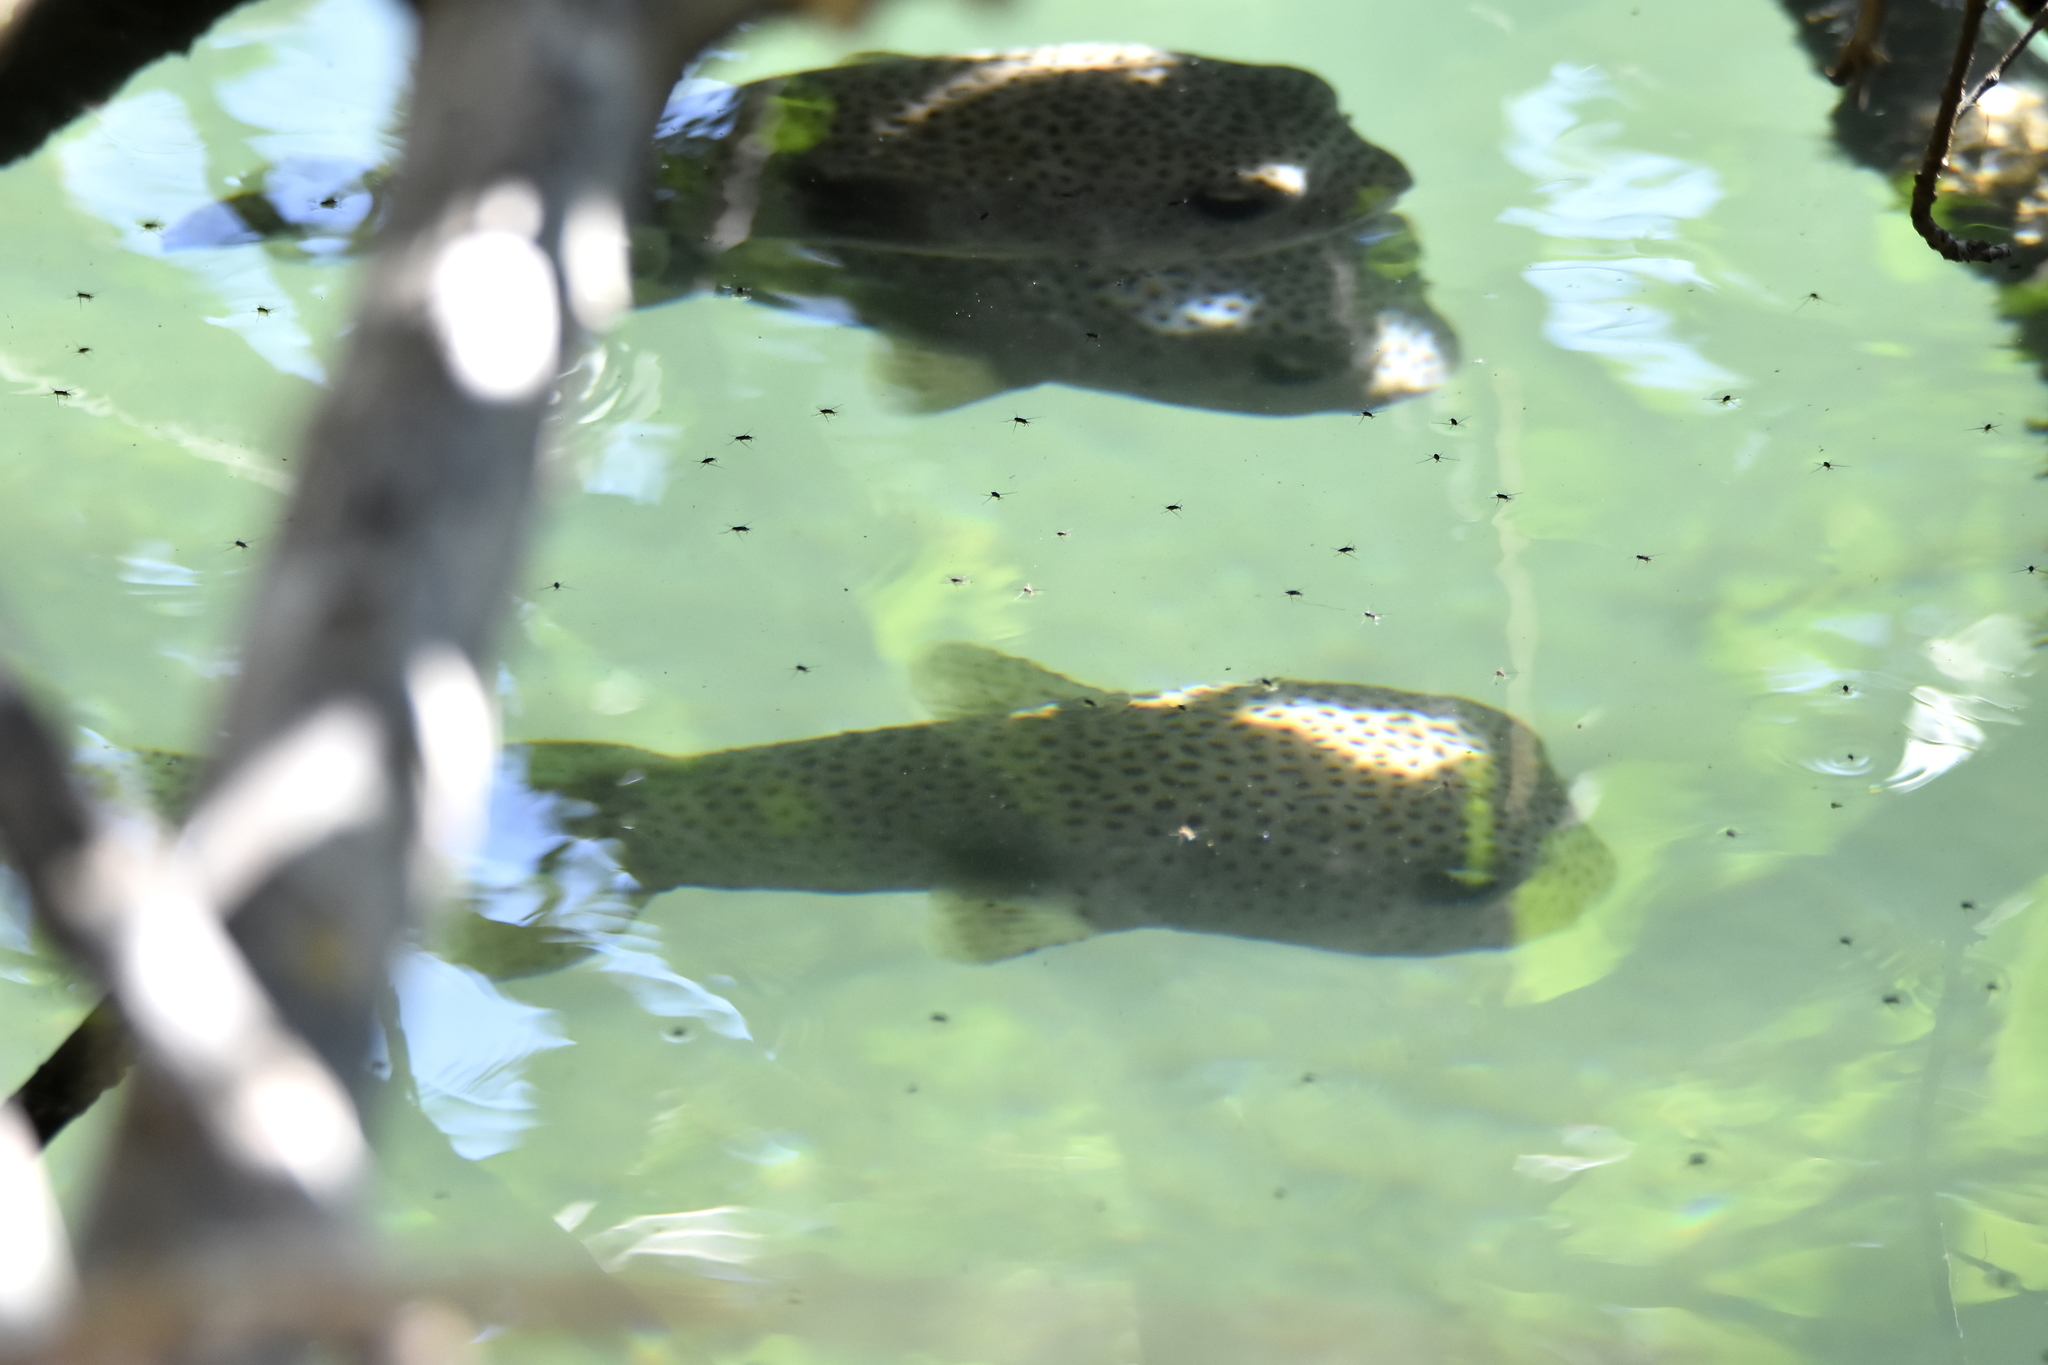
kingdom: Animalia
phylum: Chordata
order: Tetraodontiformes
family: Diodontidae
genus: Diodon
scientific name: Diodon hystrix
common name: Giant porcupinefish
